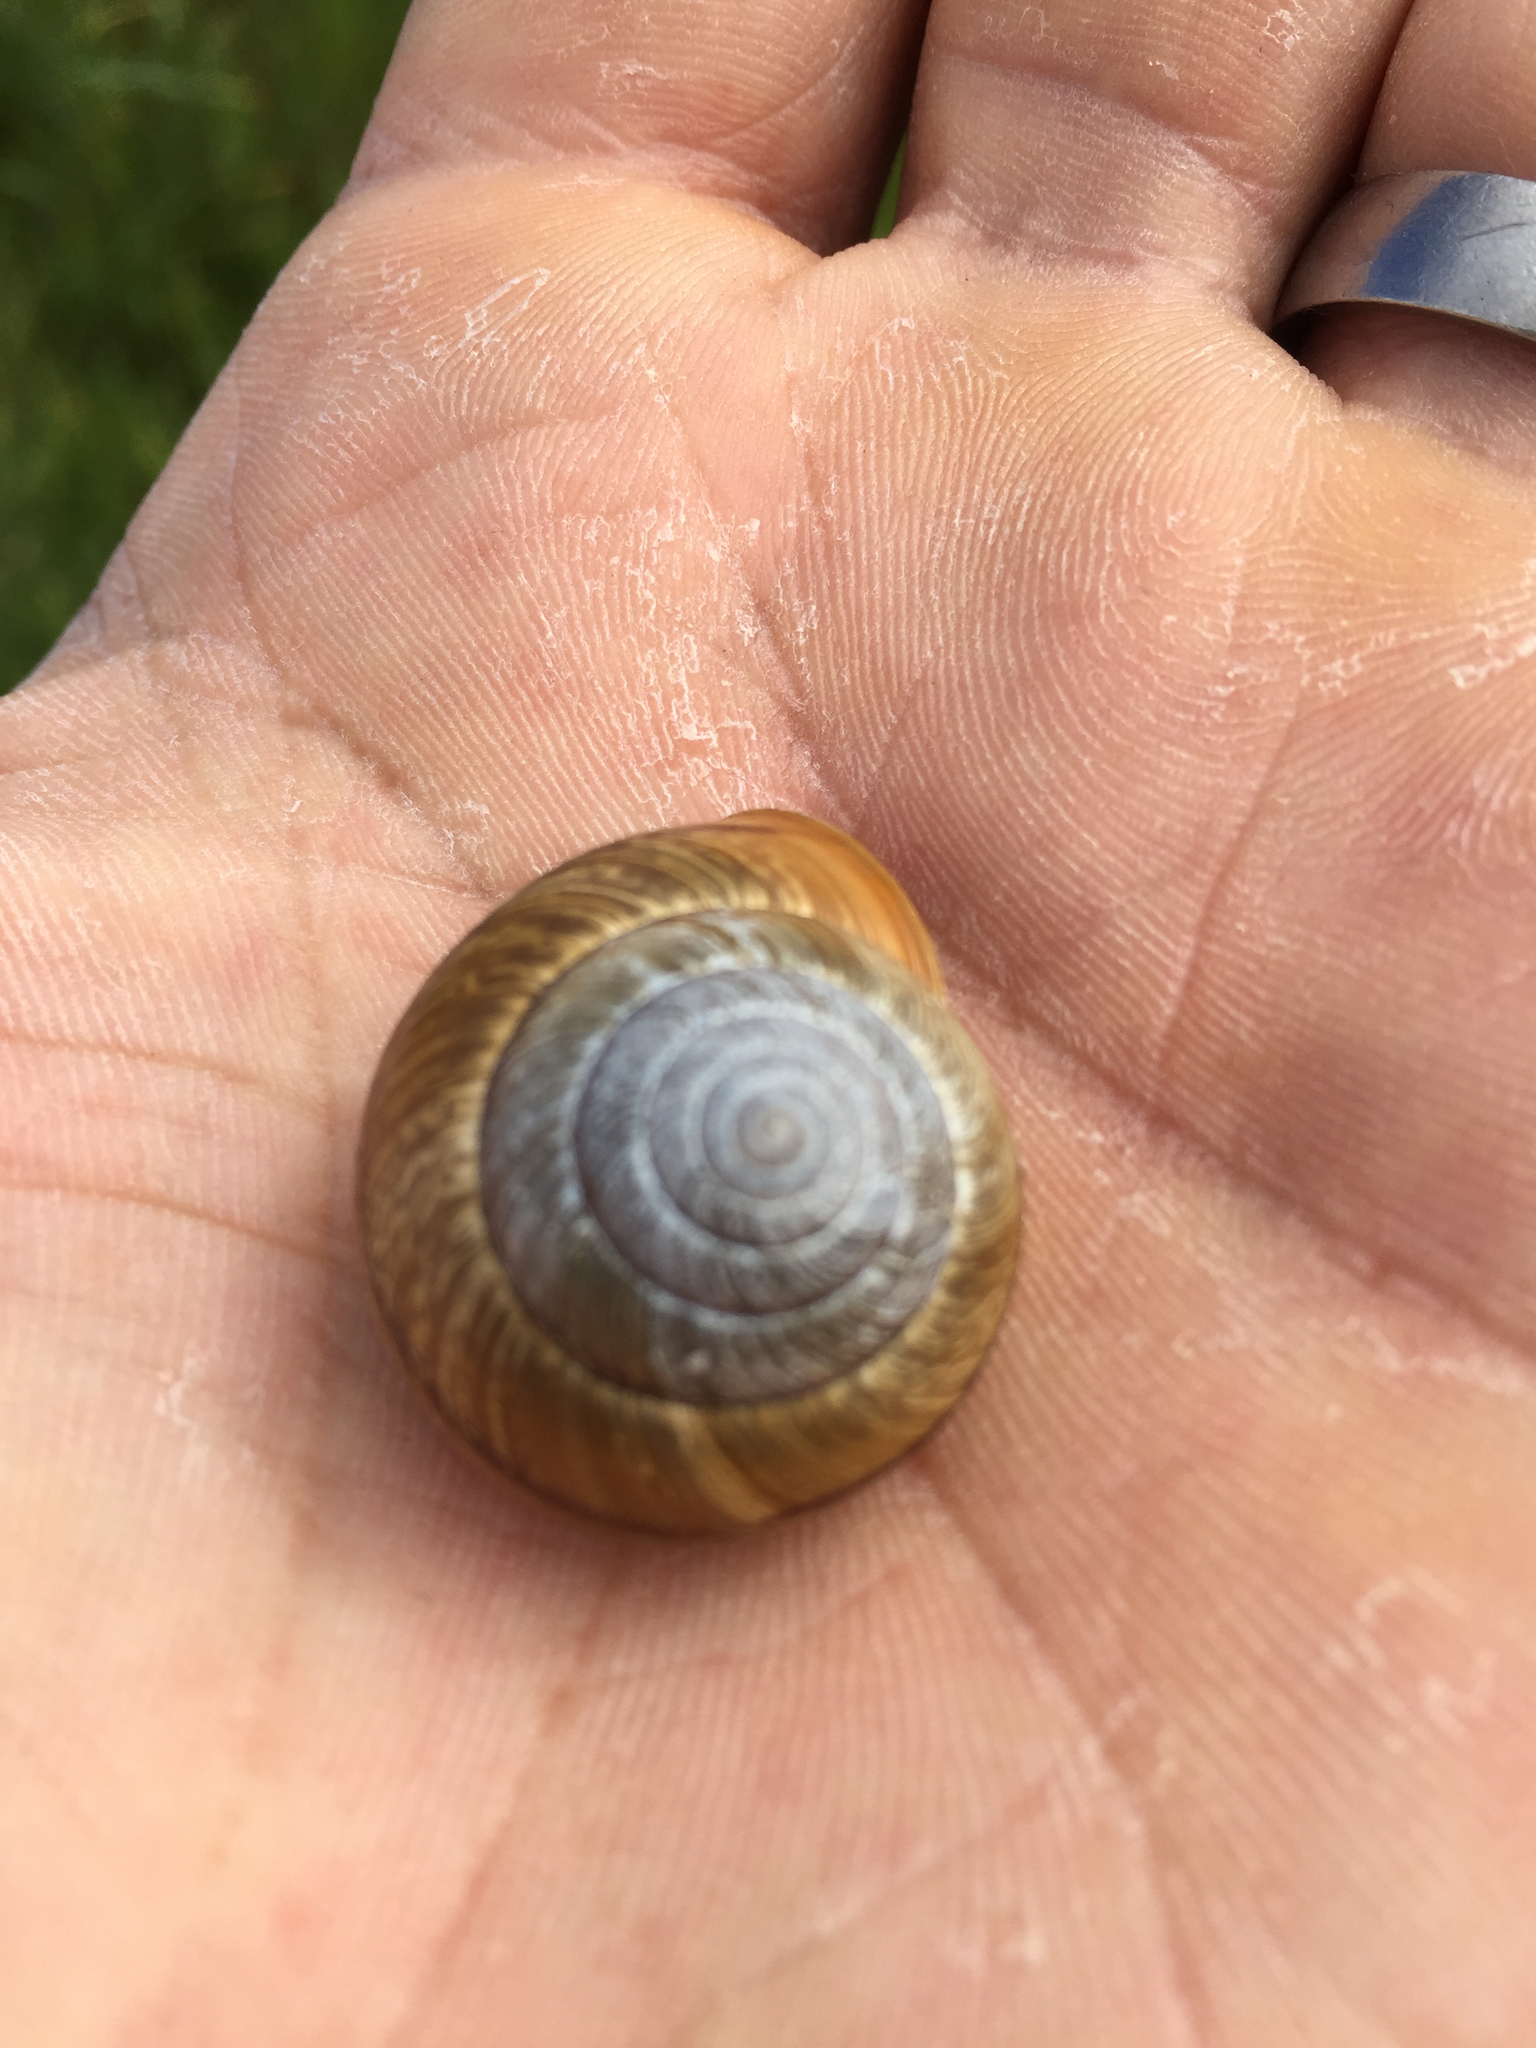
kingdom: Animalia
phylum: Mollusca
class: Gastropoda
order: Stylommatophora
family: Xanthonychidae
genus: Helminthoglypta
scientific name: Helminthoglypta stiversiana
